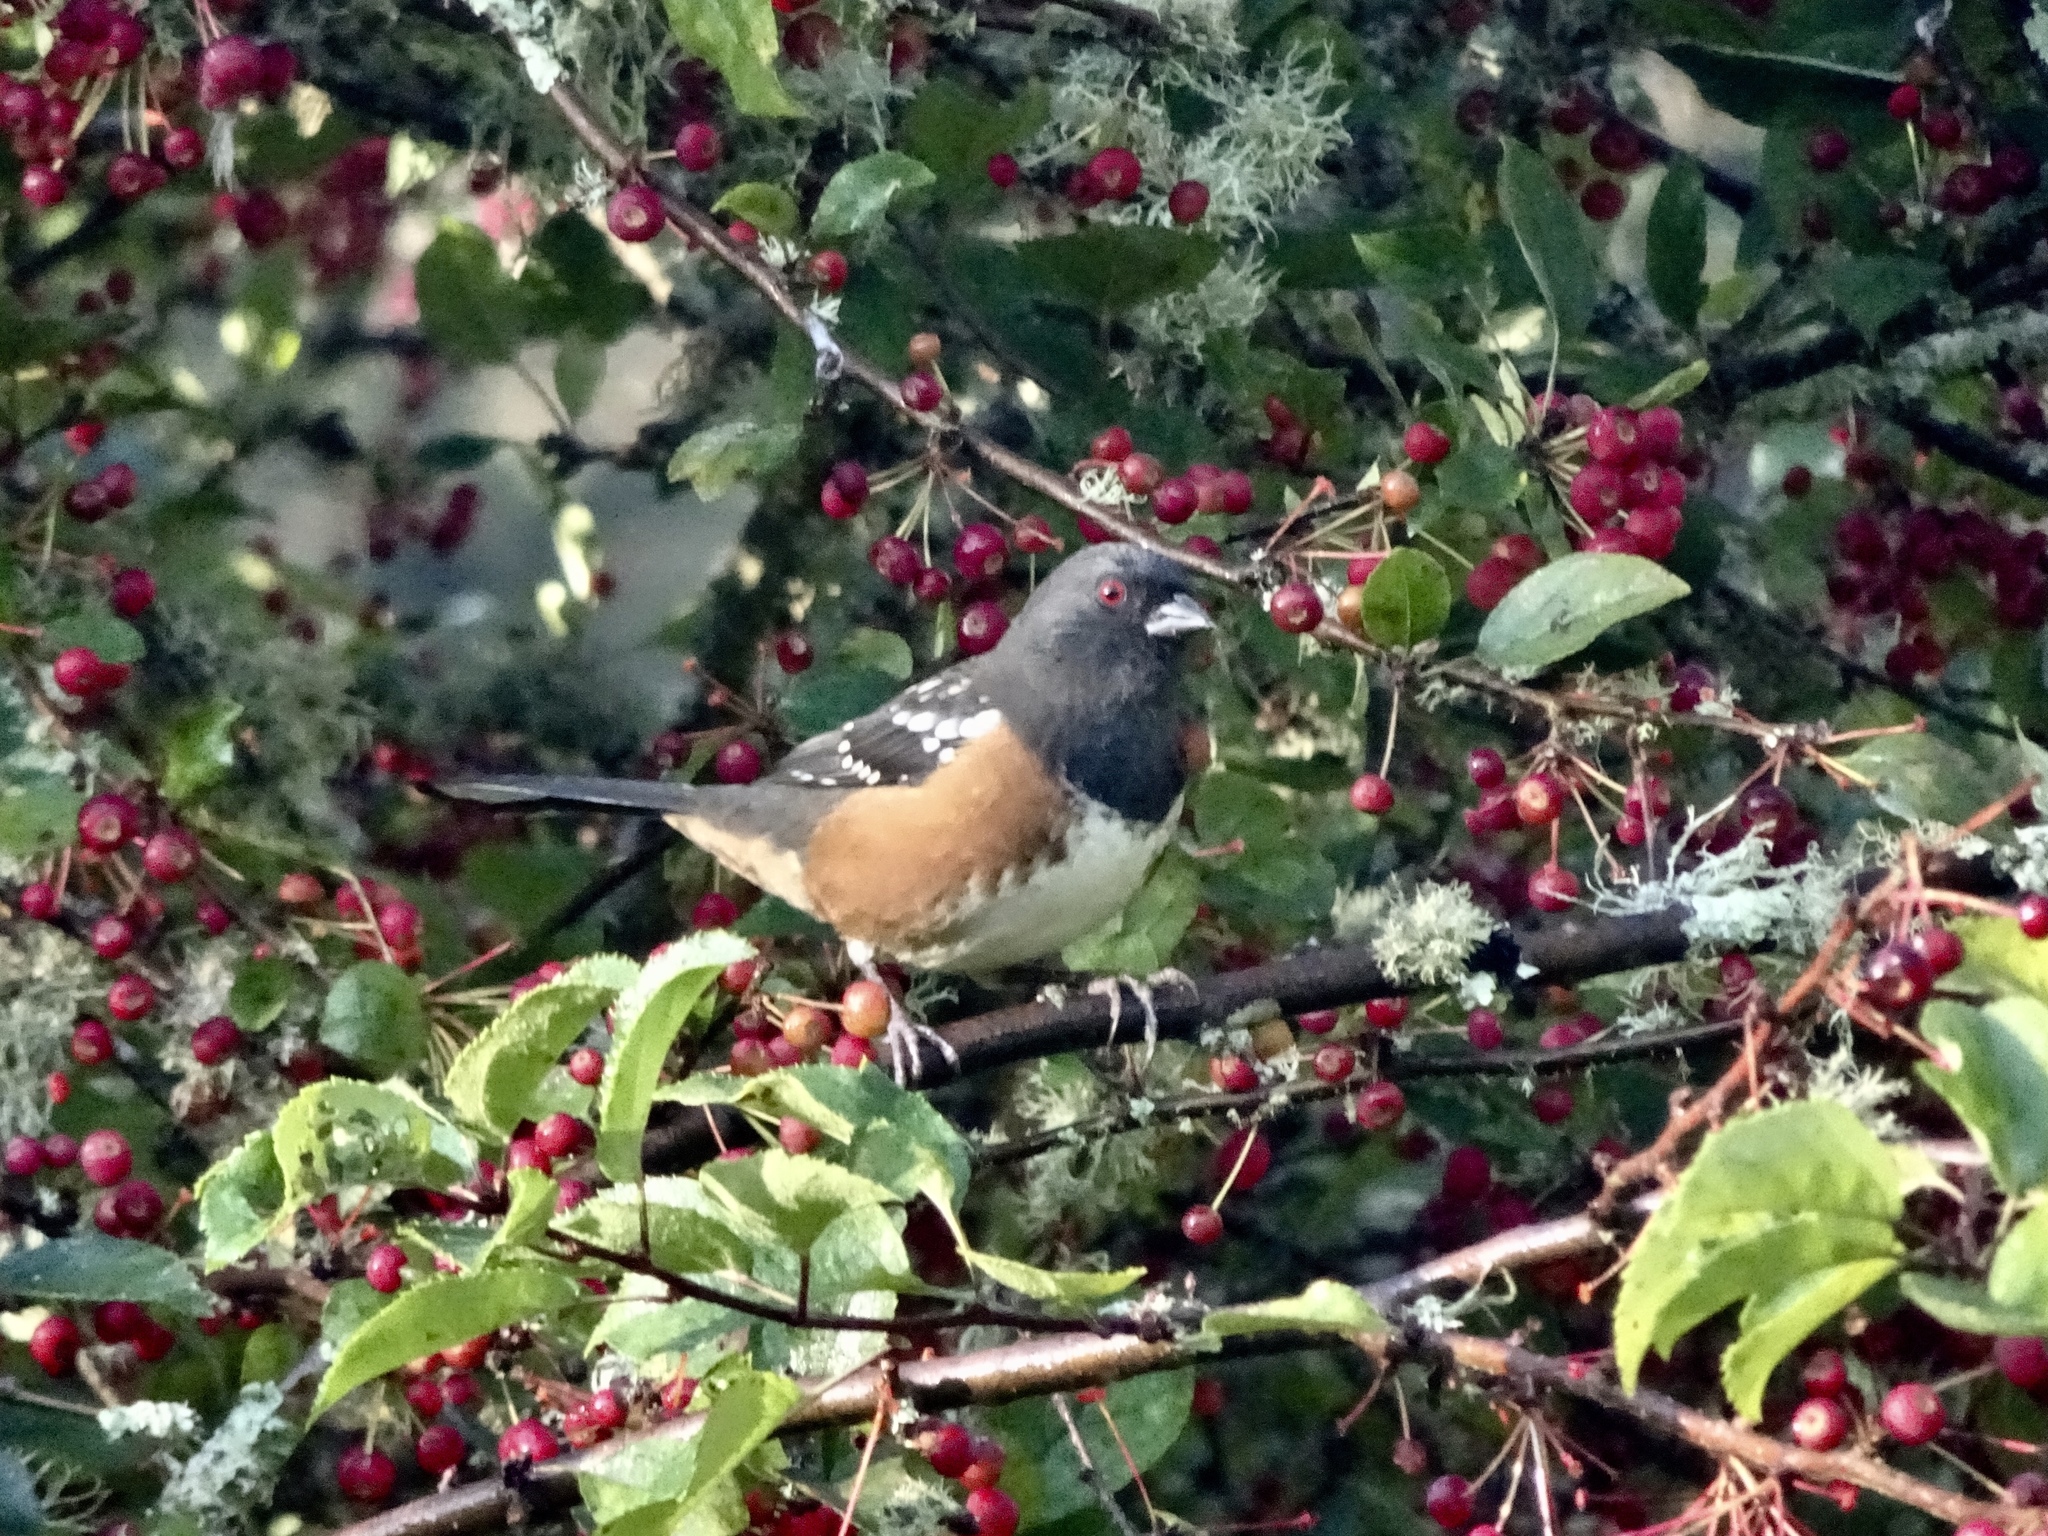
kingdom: Animalia
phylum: Chordata
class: Aves
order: Passeriformes
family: Passerellidae
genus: Pipilo
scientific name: Pipilo maculatus
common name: Spotted towhee
